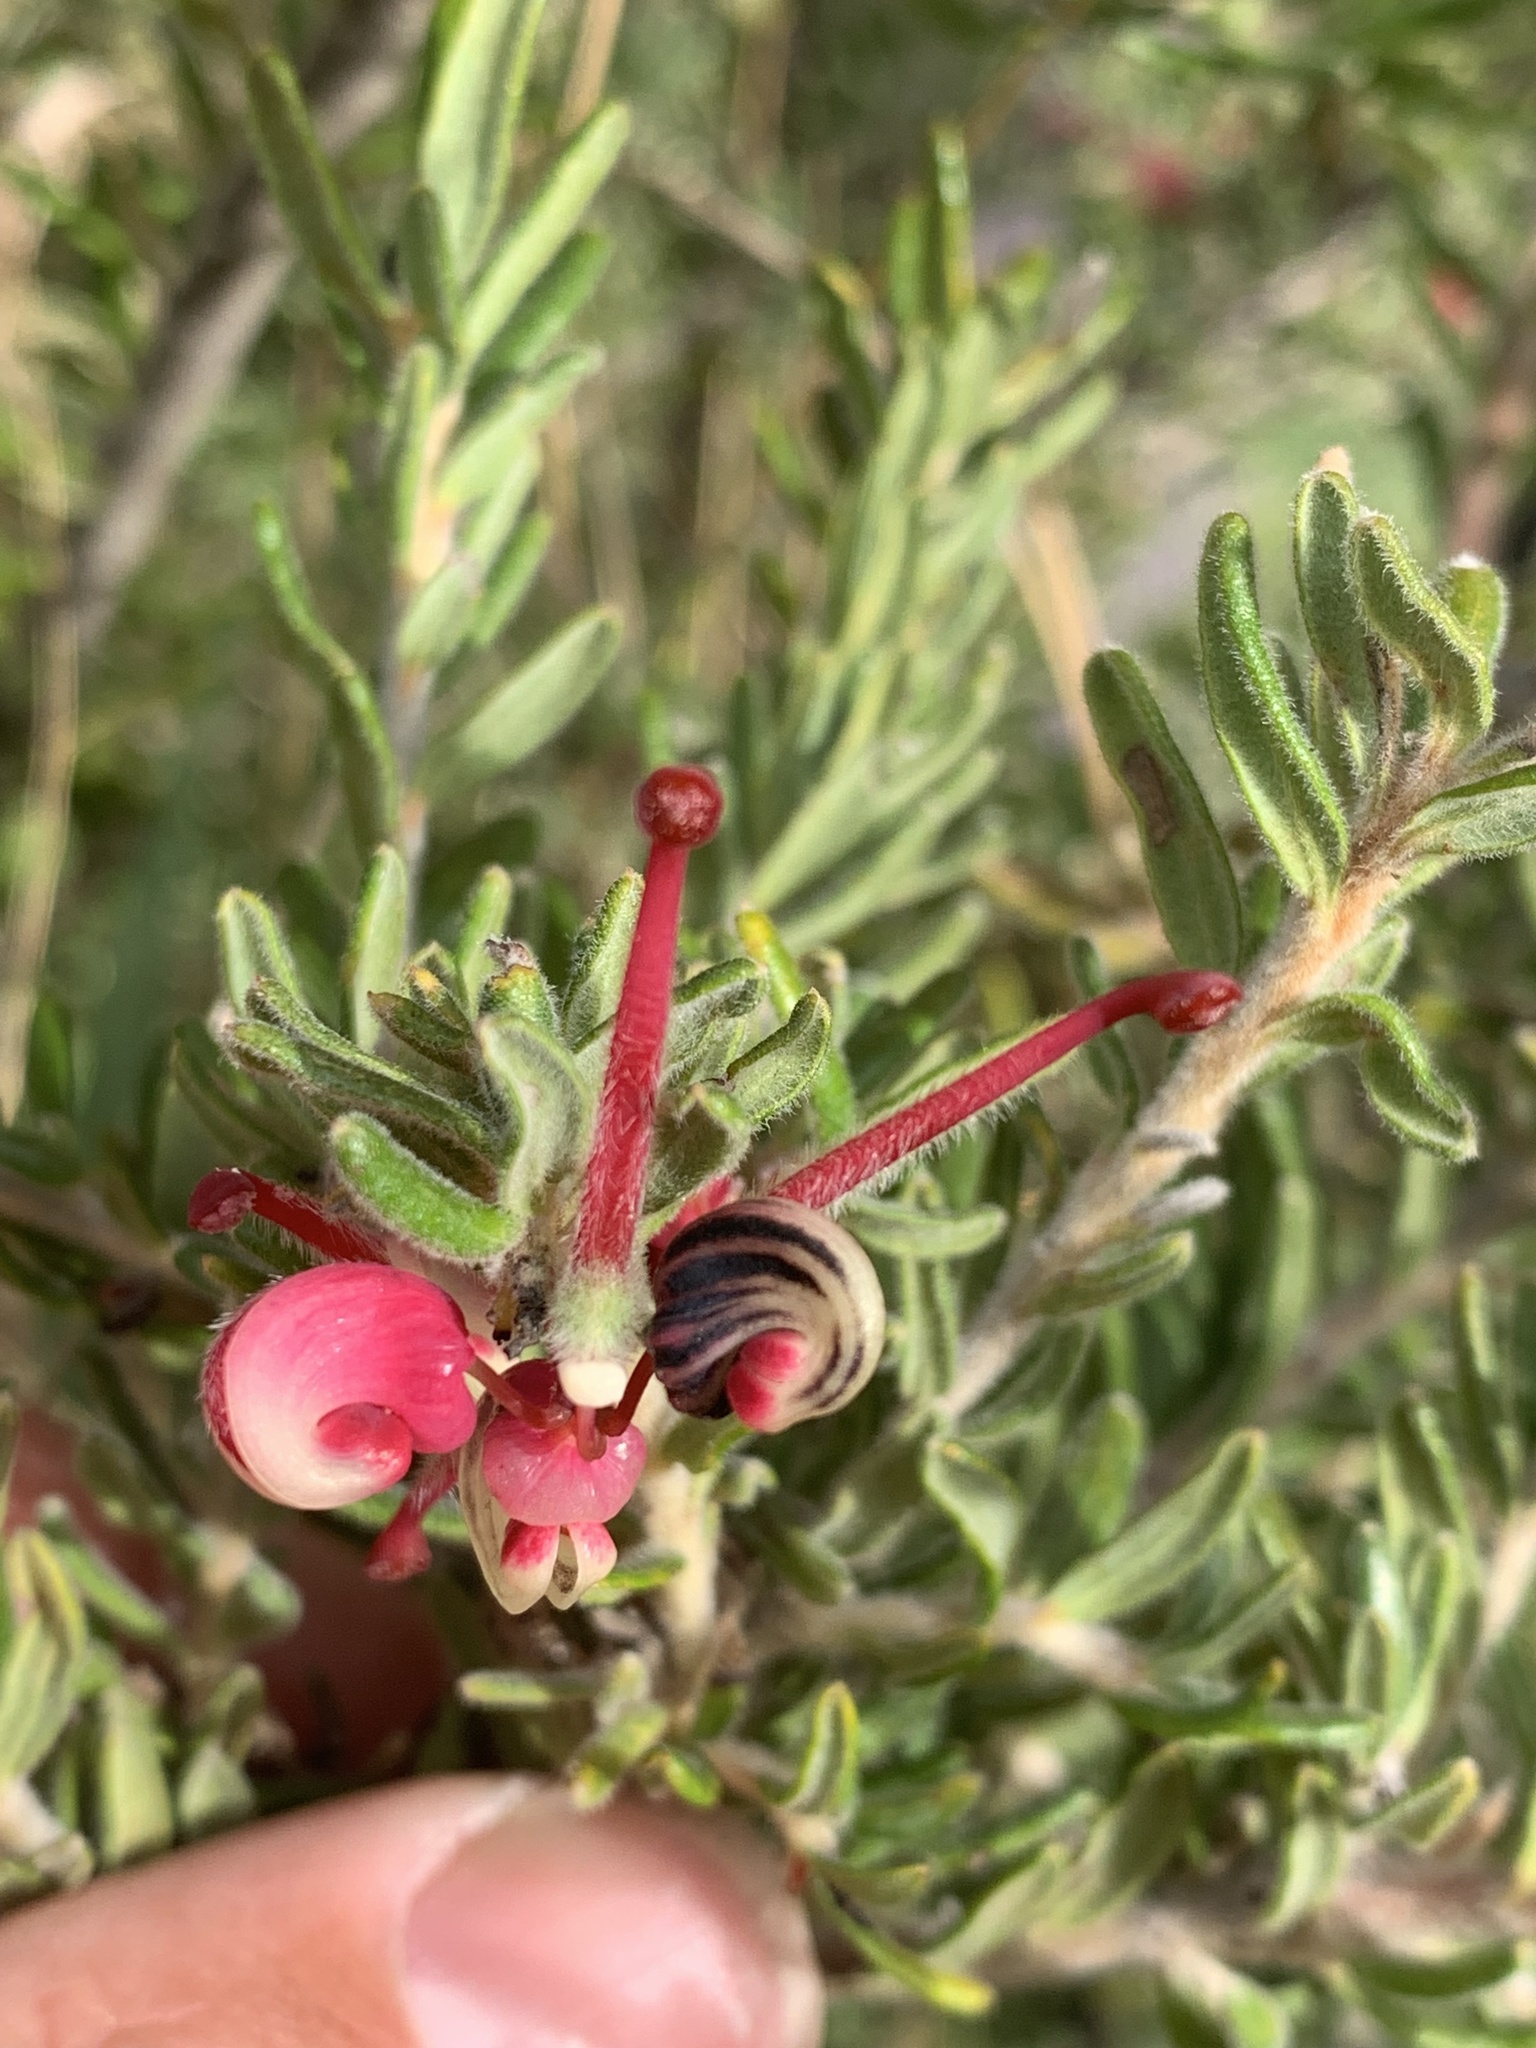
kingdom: Plantae
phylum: Tracheophyta
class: Magnoliopsida
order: Proteales
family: Proteaceae
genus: Grevillea
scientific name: Grevillea lanigera
